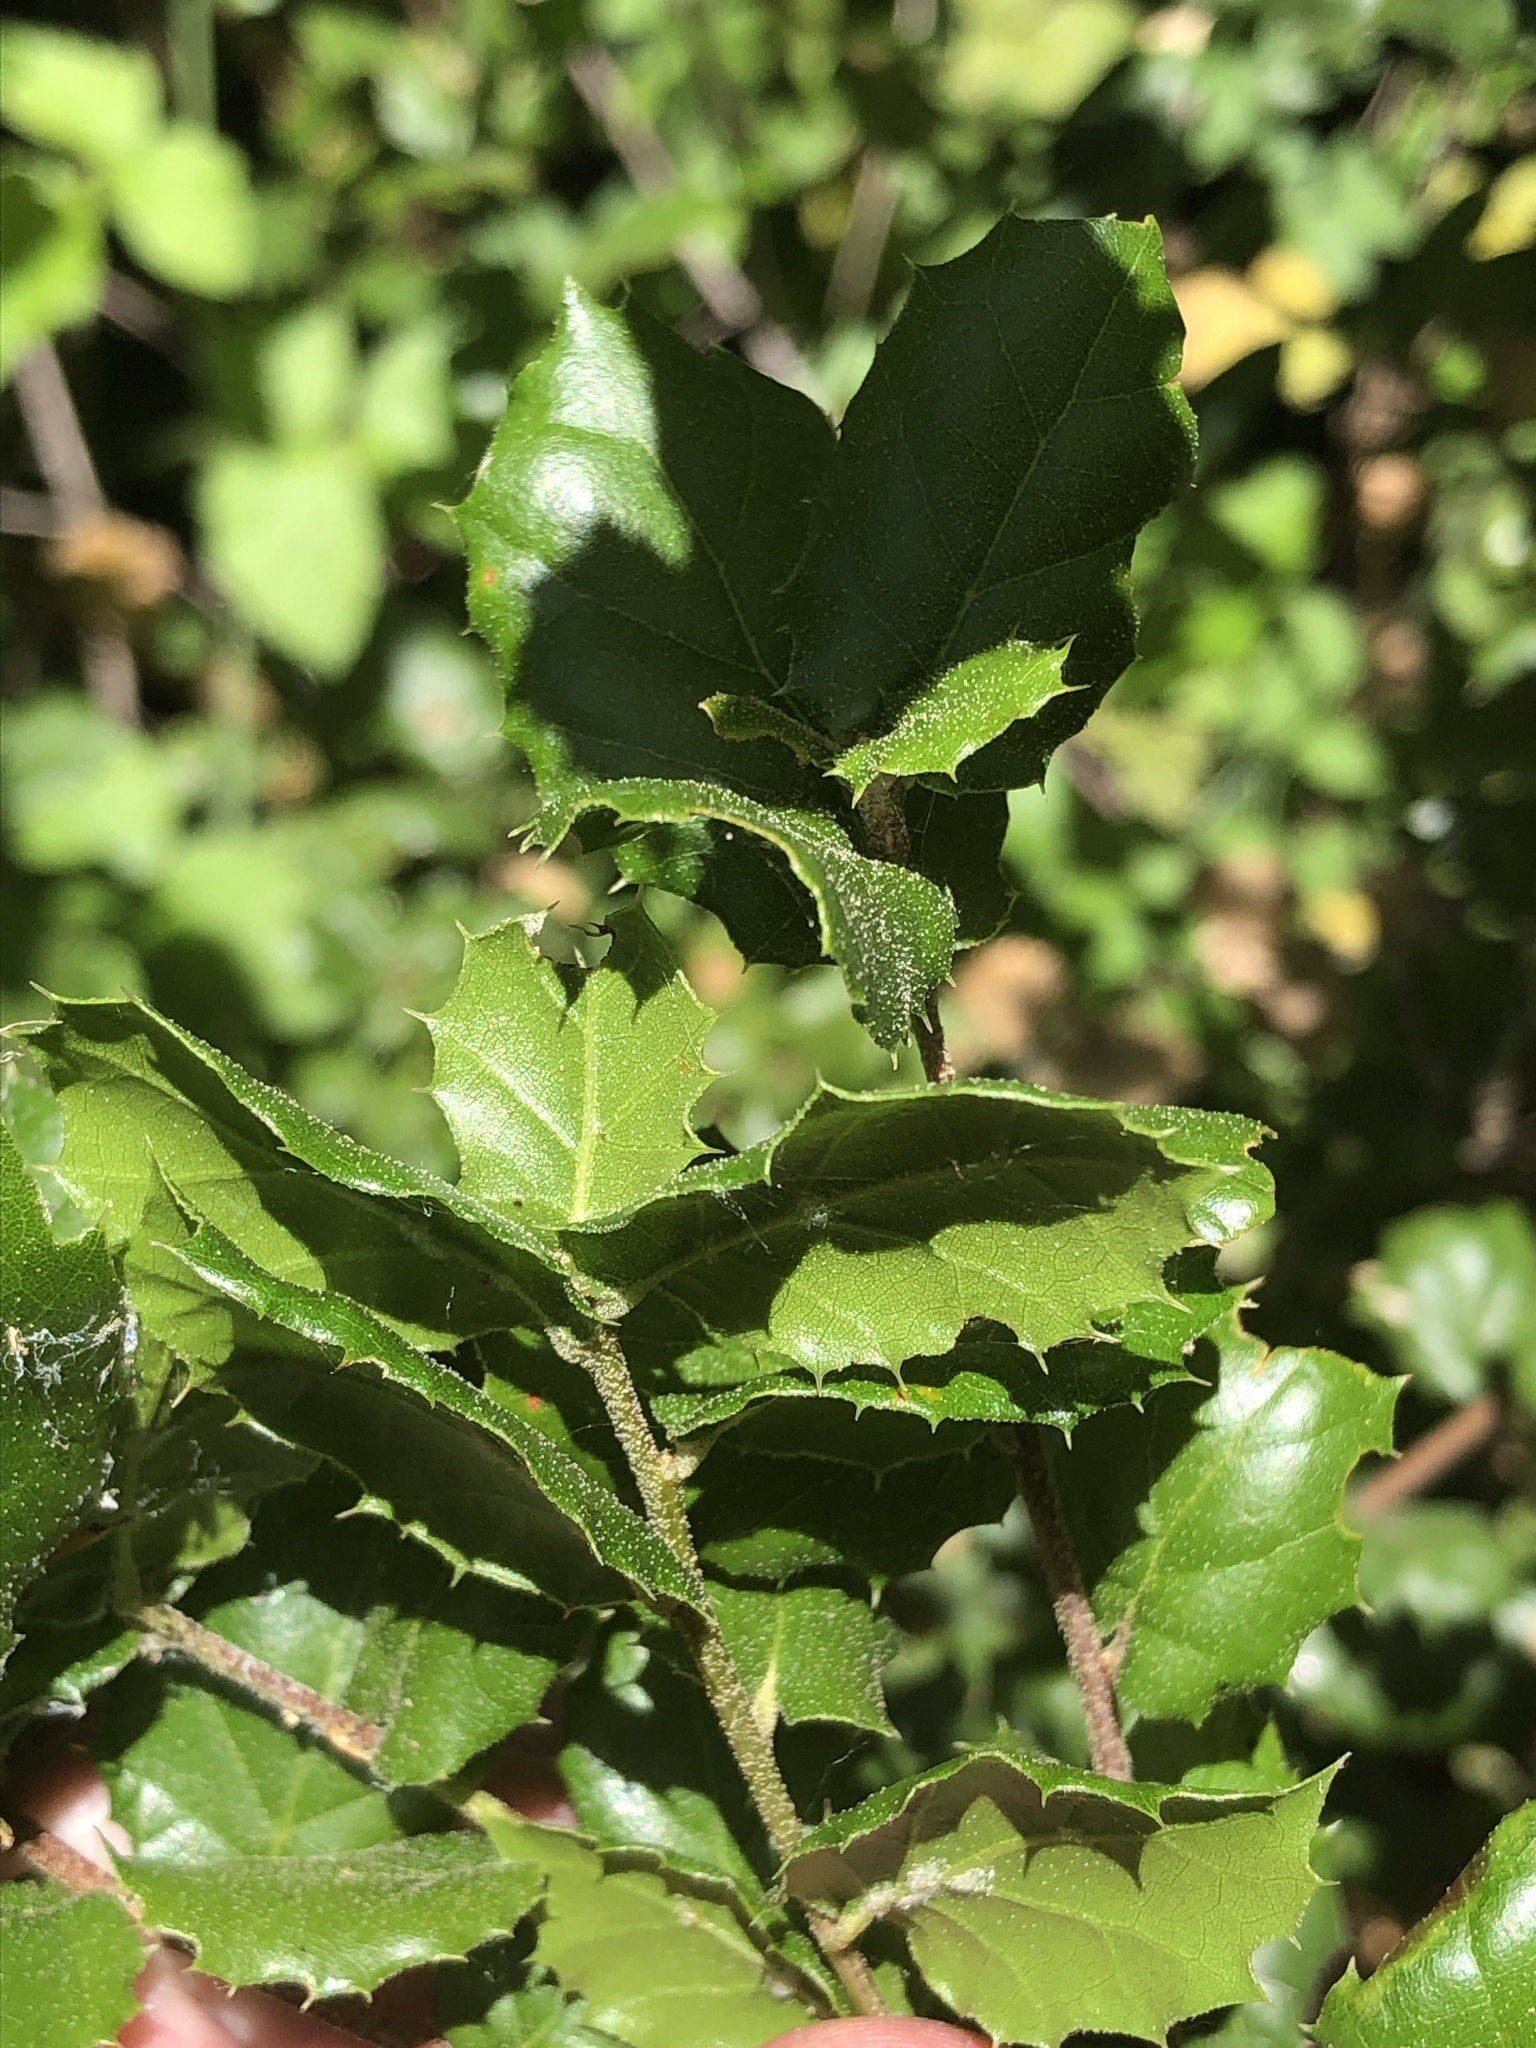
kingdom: Plantae
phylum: Tracheophyta
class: Magnoliopsida
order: Fagales
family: Fagaceae
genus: Quercus
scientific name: Quercus agrifolia
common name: California live oak
